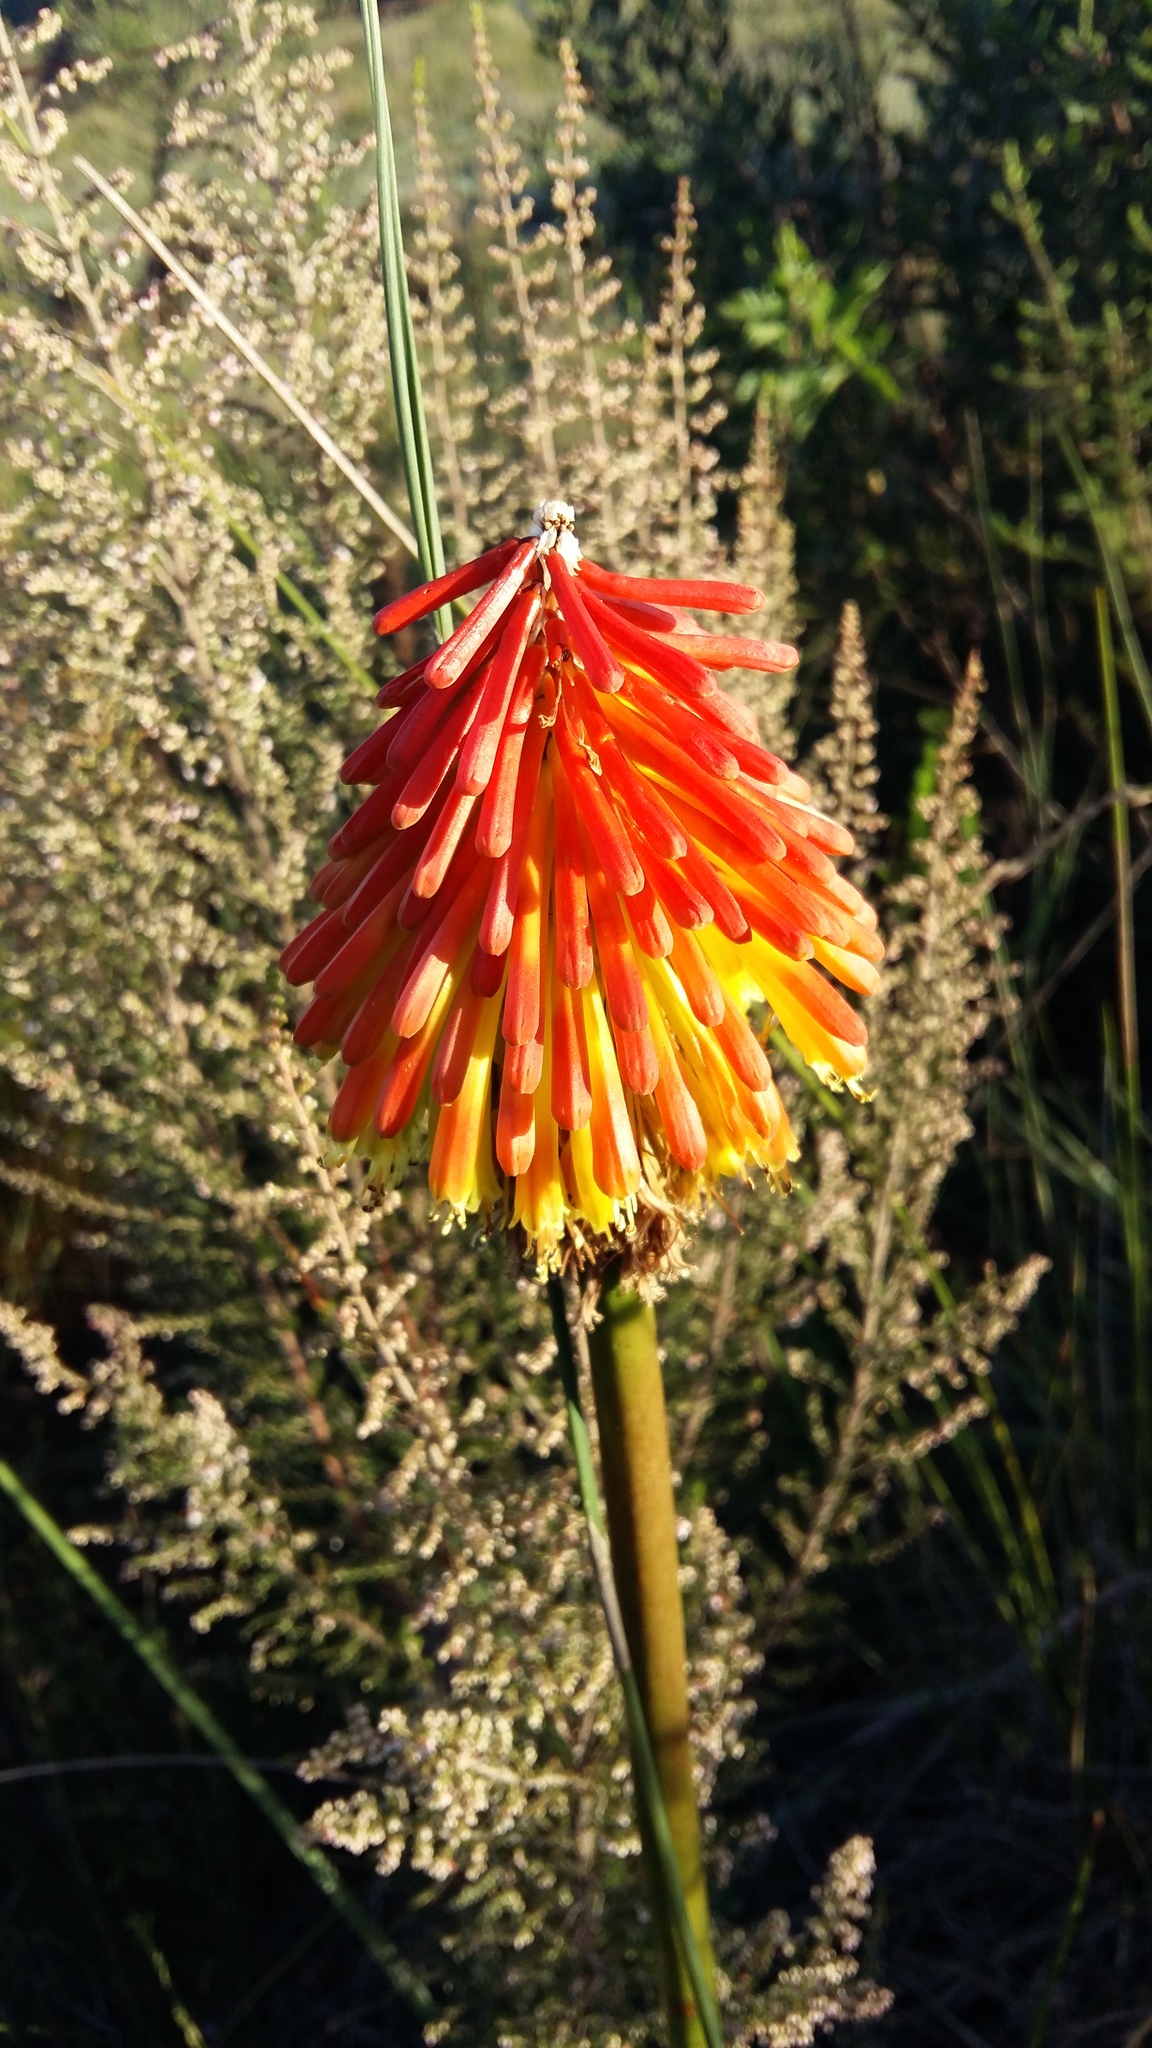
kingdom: Plantae
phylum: Tracheophyta
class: Liliopsida
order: Asparagales
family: Asphodelaceae
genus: Kniphofia
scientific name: Kniphofia uvaria
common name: Red-hot-poker
